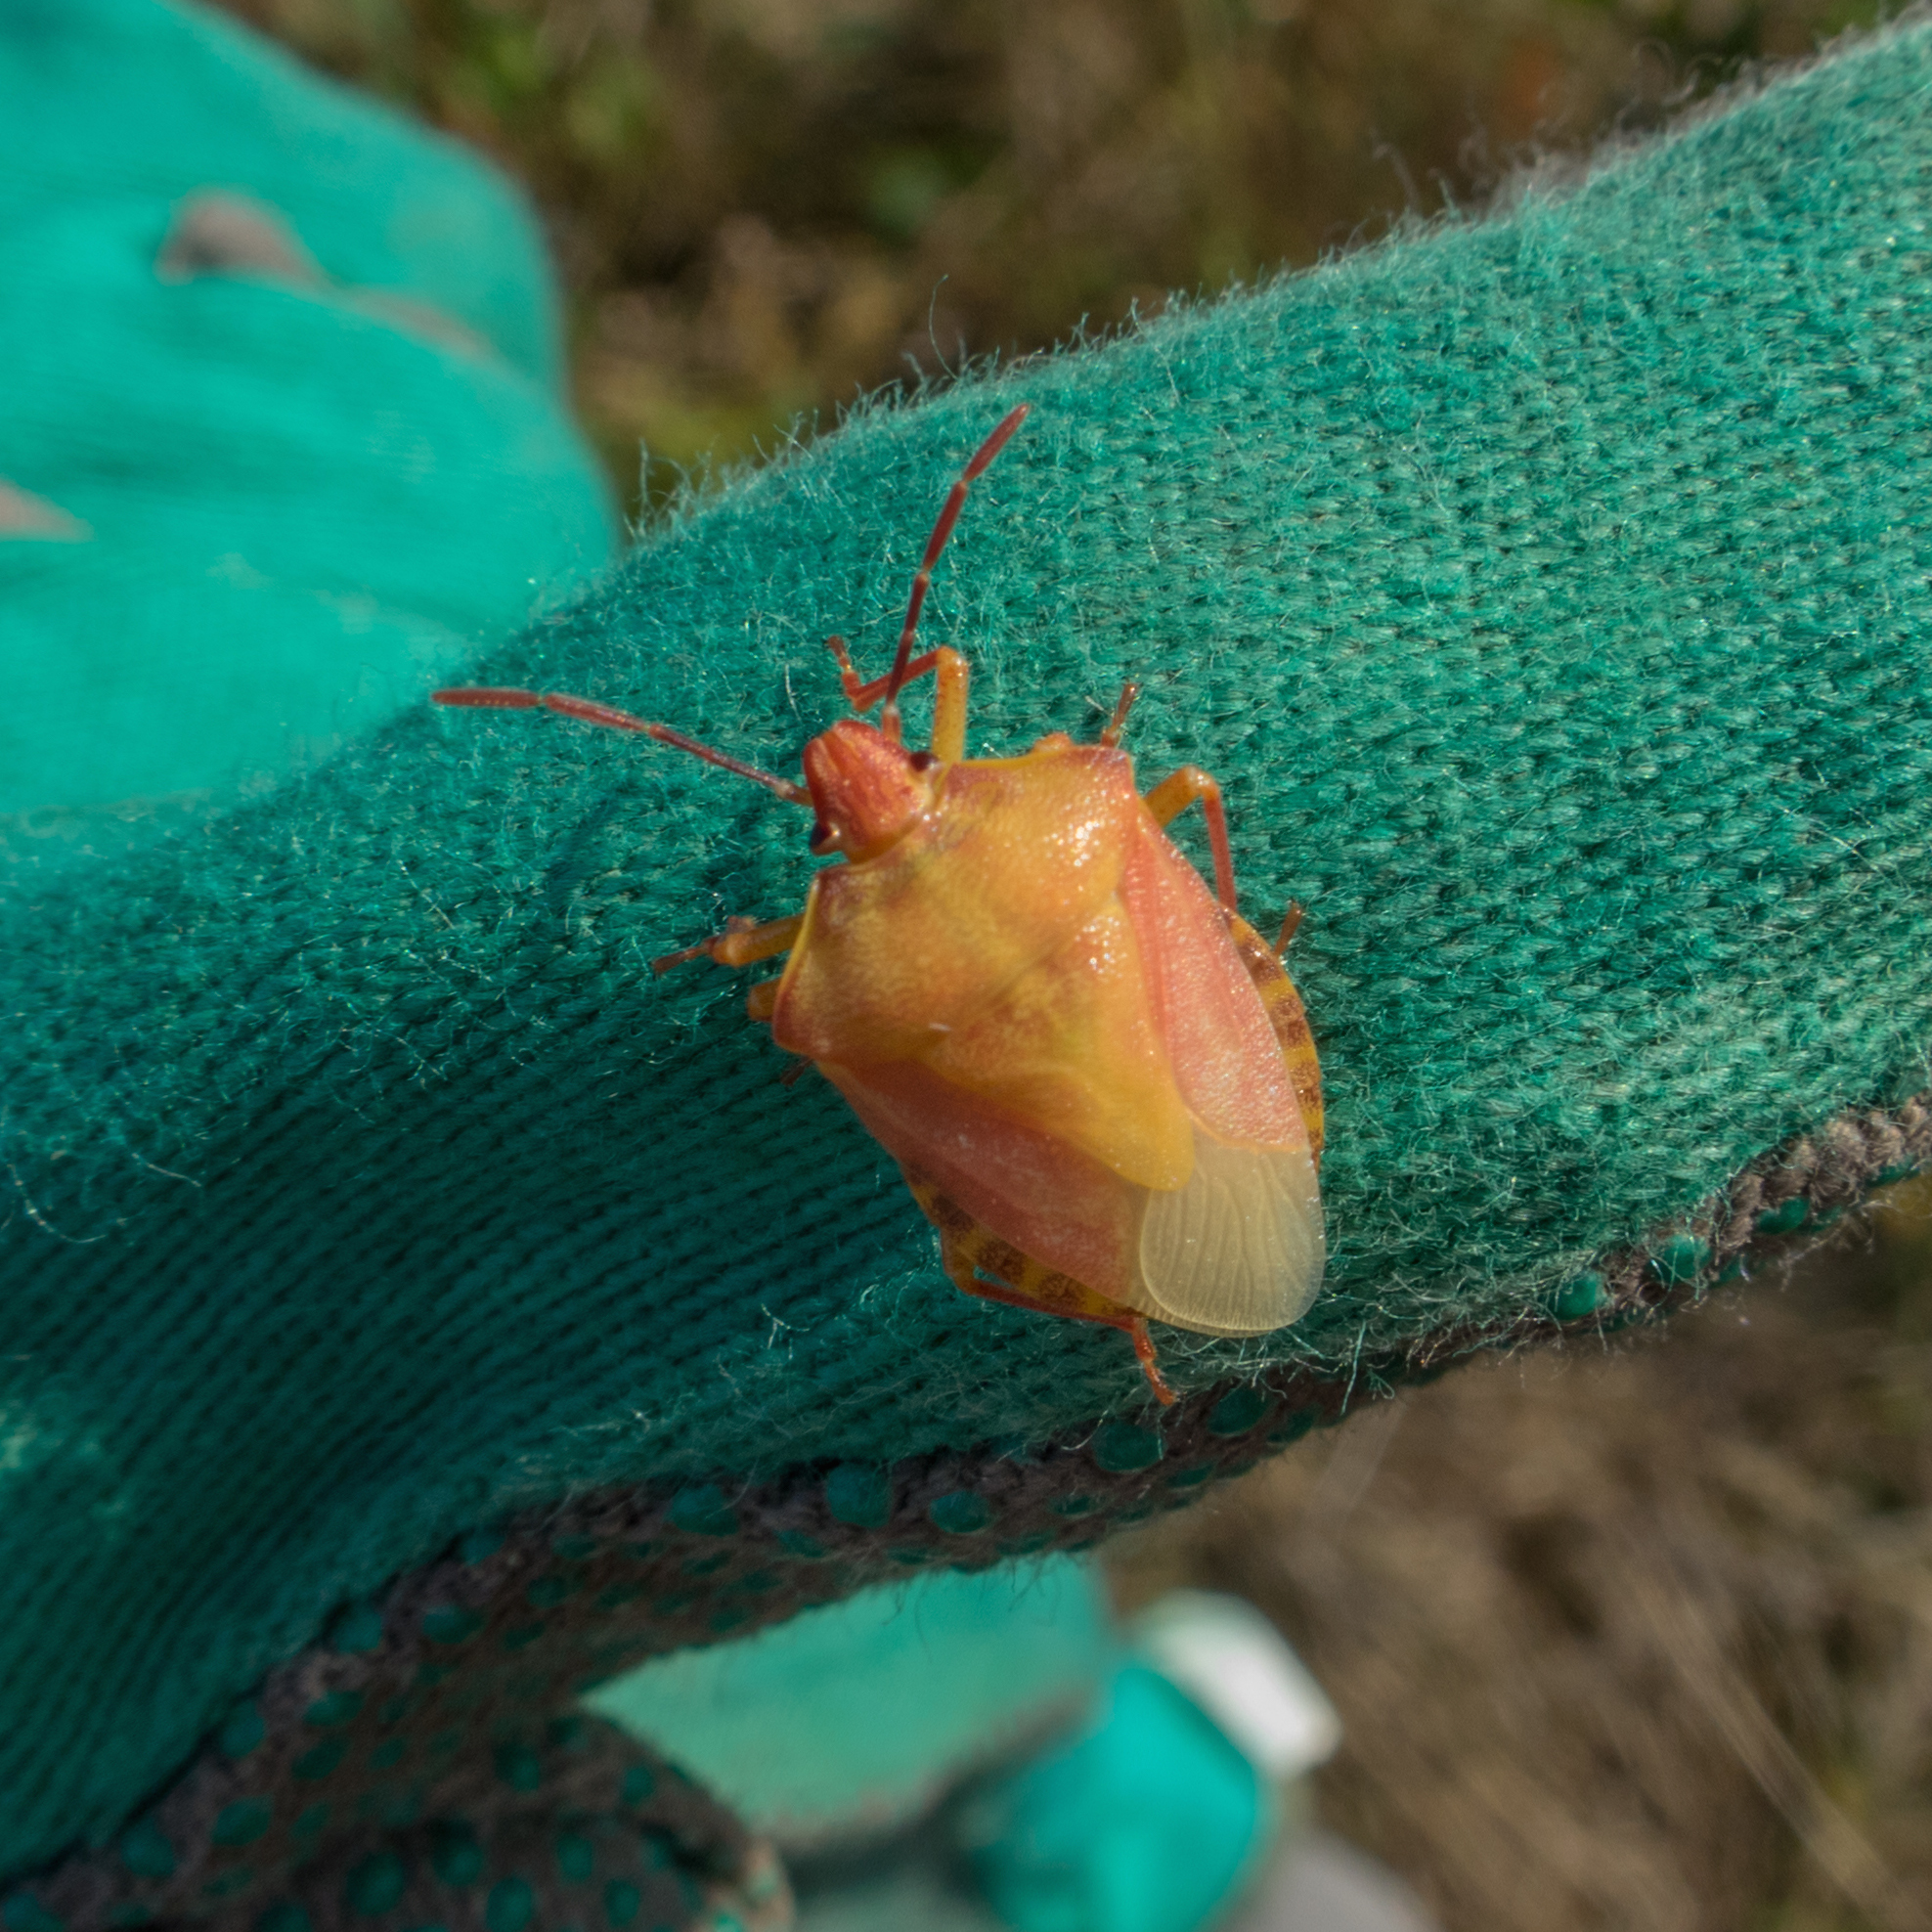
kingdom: Animalia
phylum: Arthropoda
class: Insecta
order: Hemiptera
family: Pentatomidae
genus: Carpocoris
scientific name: Carpocoris purpureipennis
